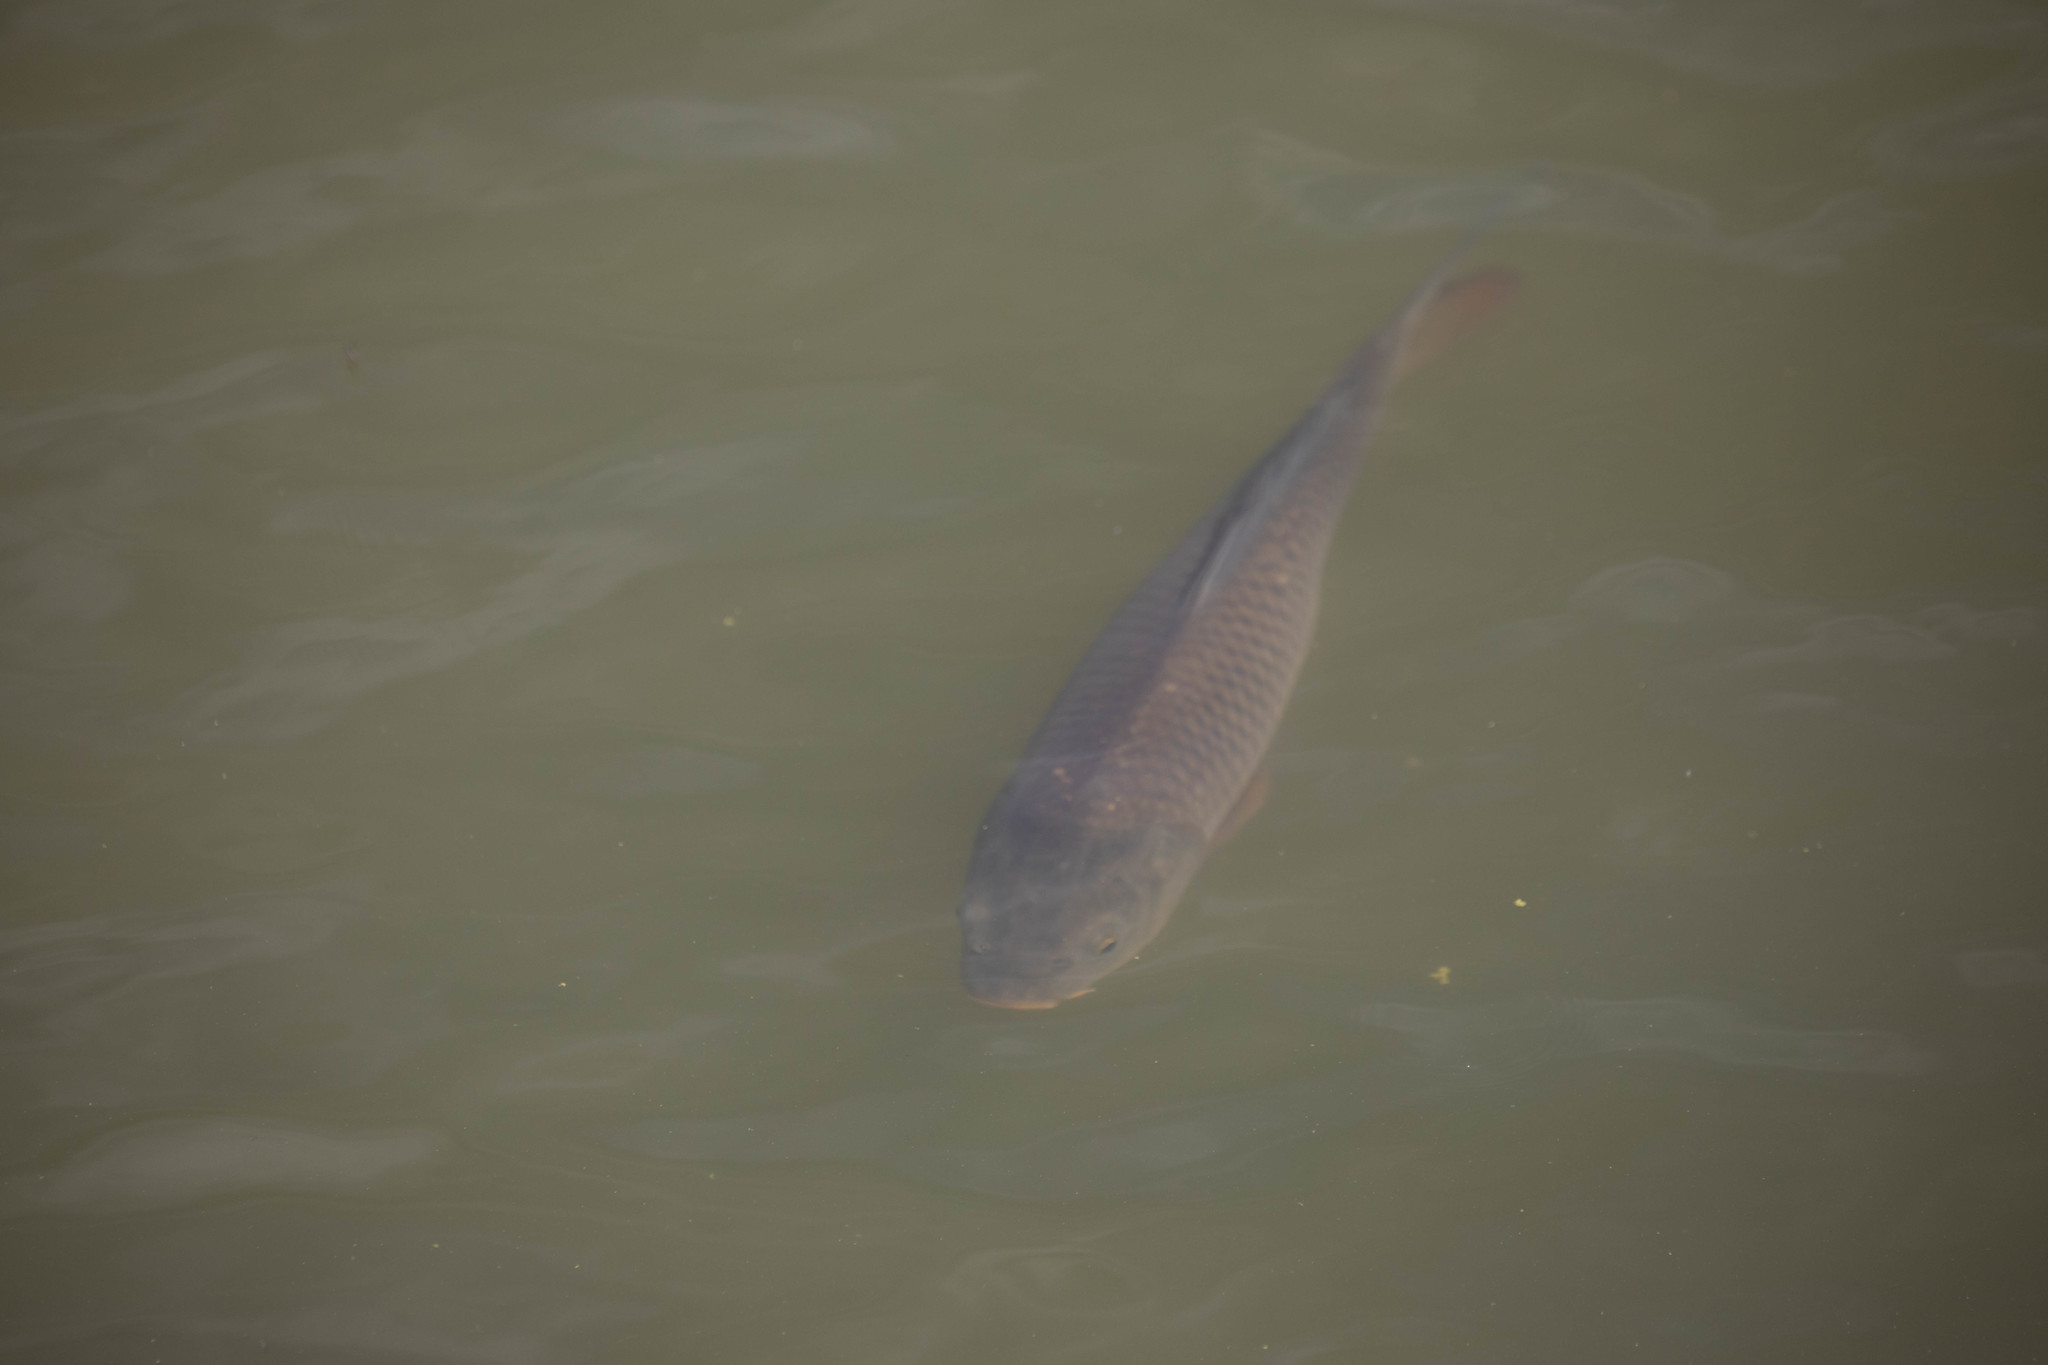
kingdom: Animalia
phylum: Chordata
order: Cypriniformes
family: Cyprinidae
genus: Cyprinus
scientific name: Cyprinus carpio
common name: Common carp
